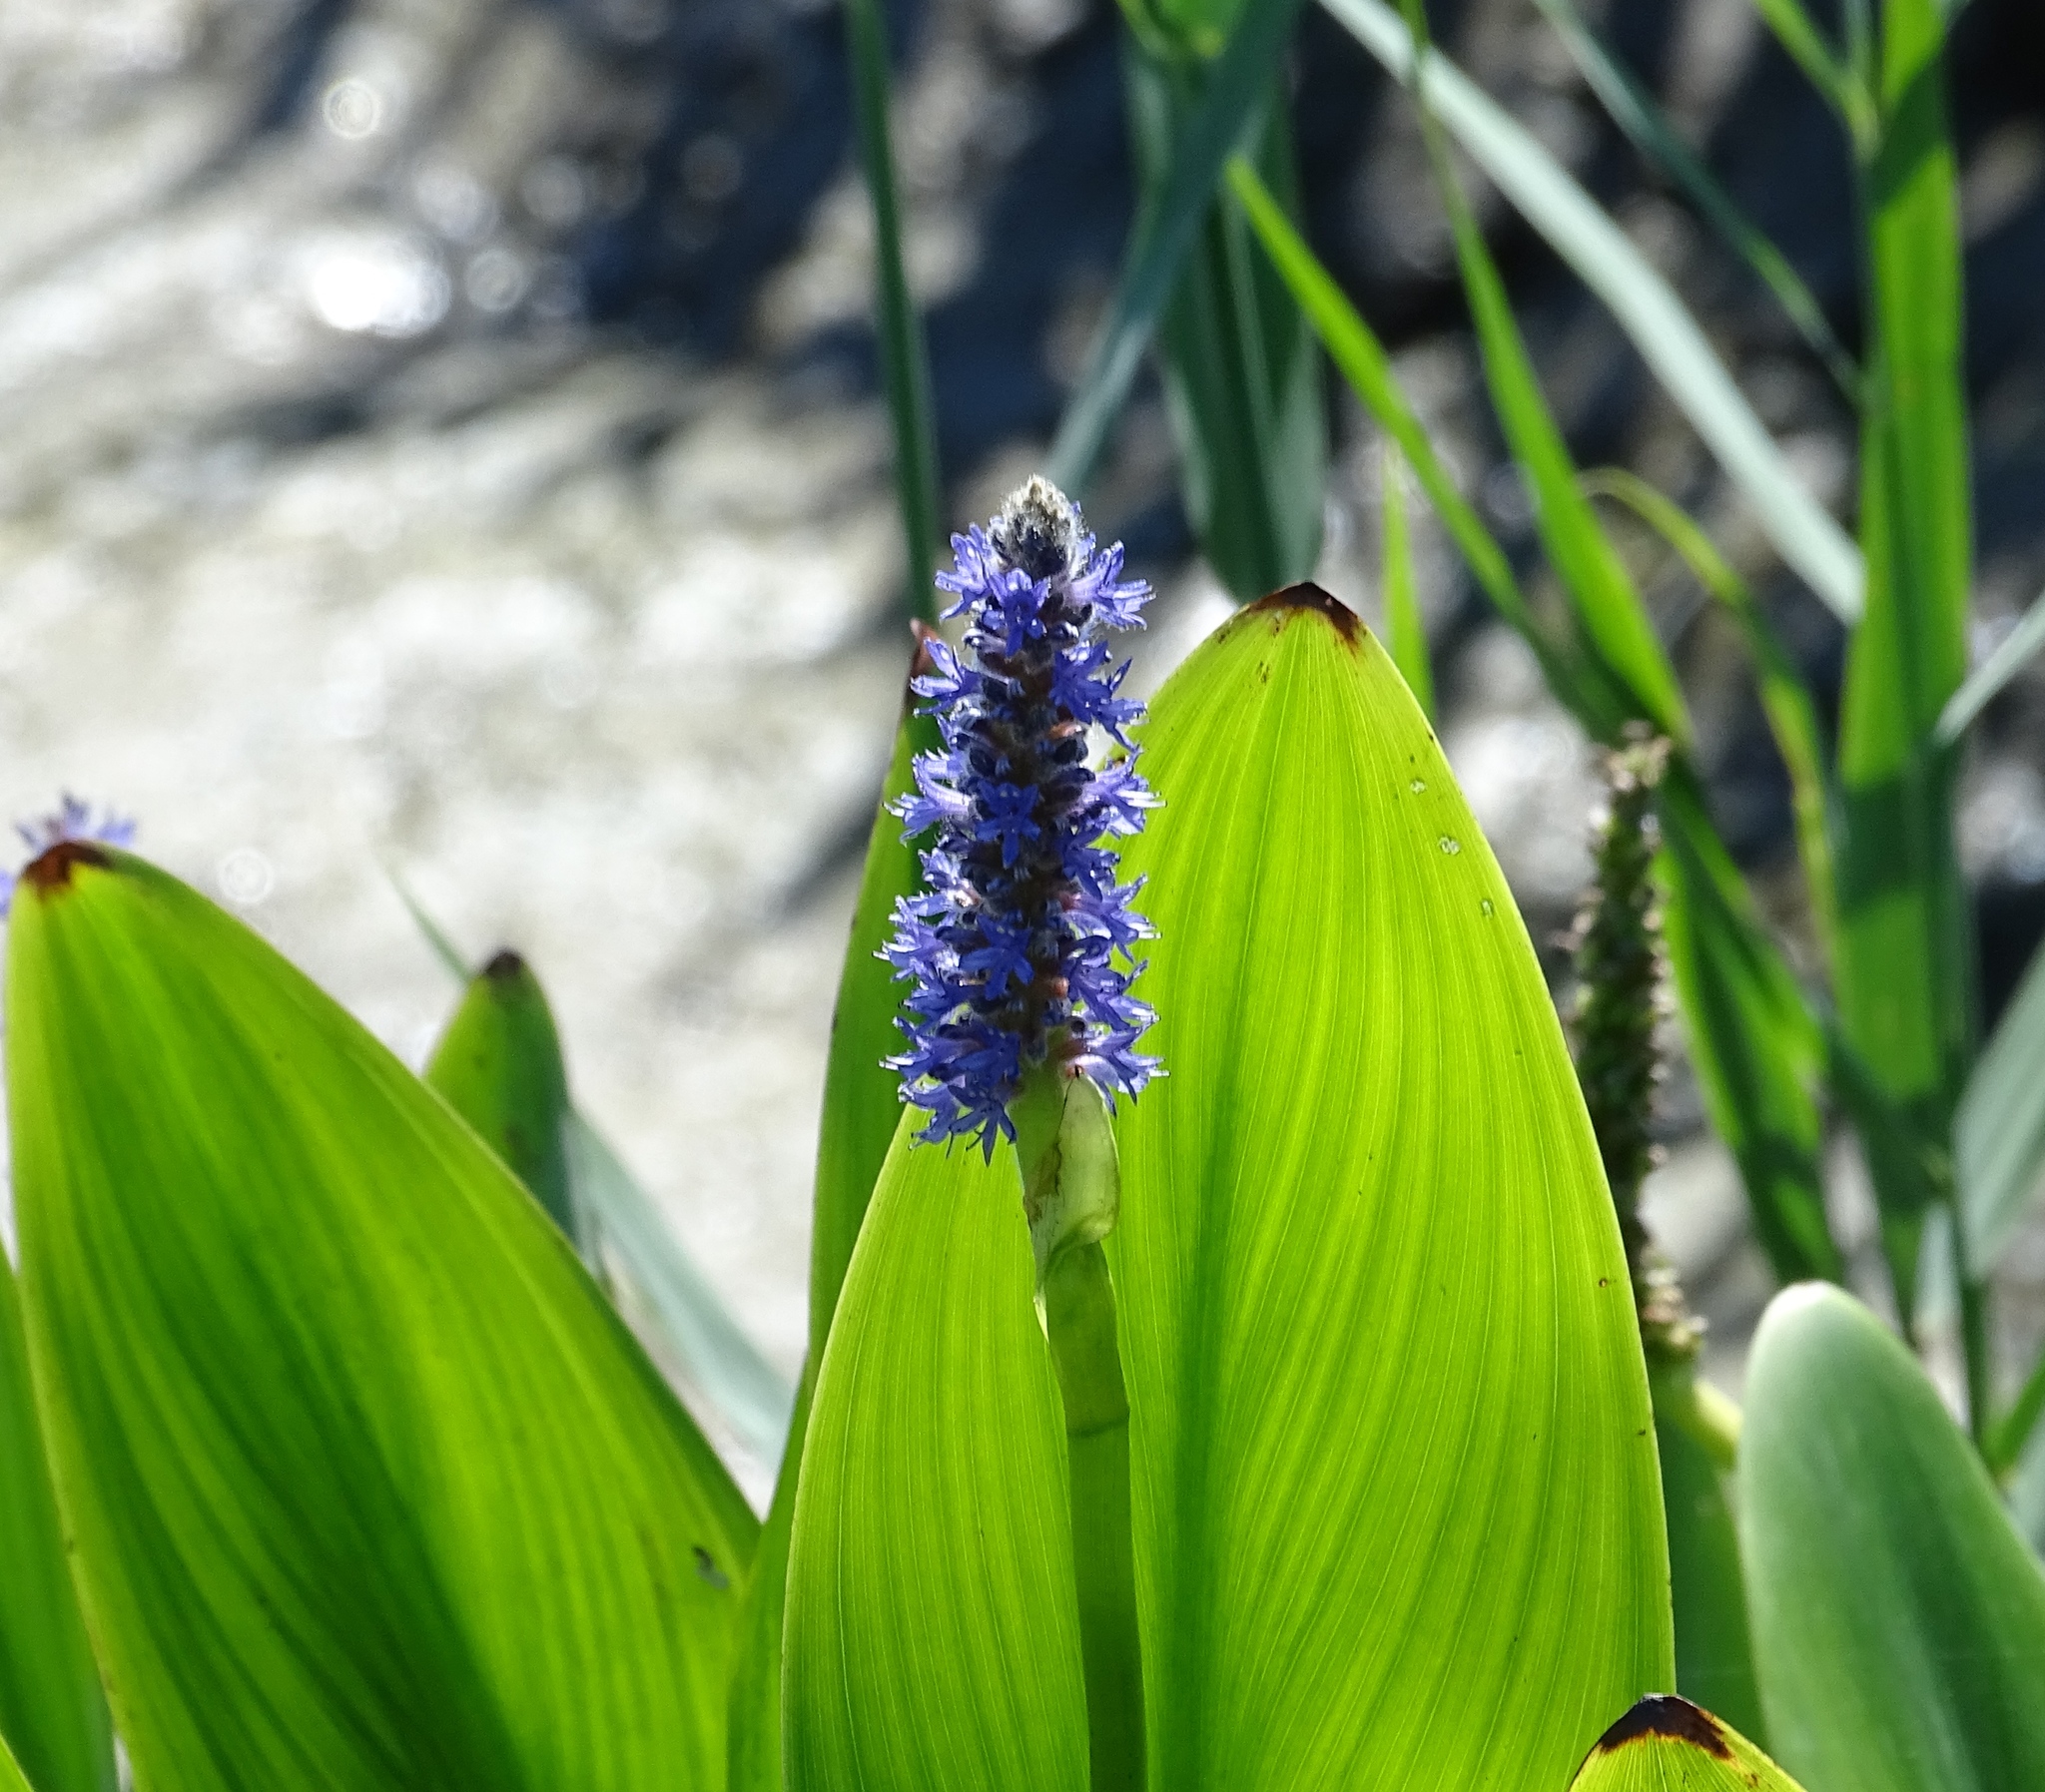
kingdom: Plantae
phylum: Tracheophyta
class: Liliopsida
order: Commelinales
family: Pontederiaceae
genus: Pontederia
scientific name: Pontederia cordata
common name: Pickerelweed
